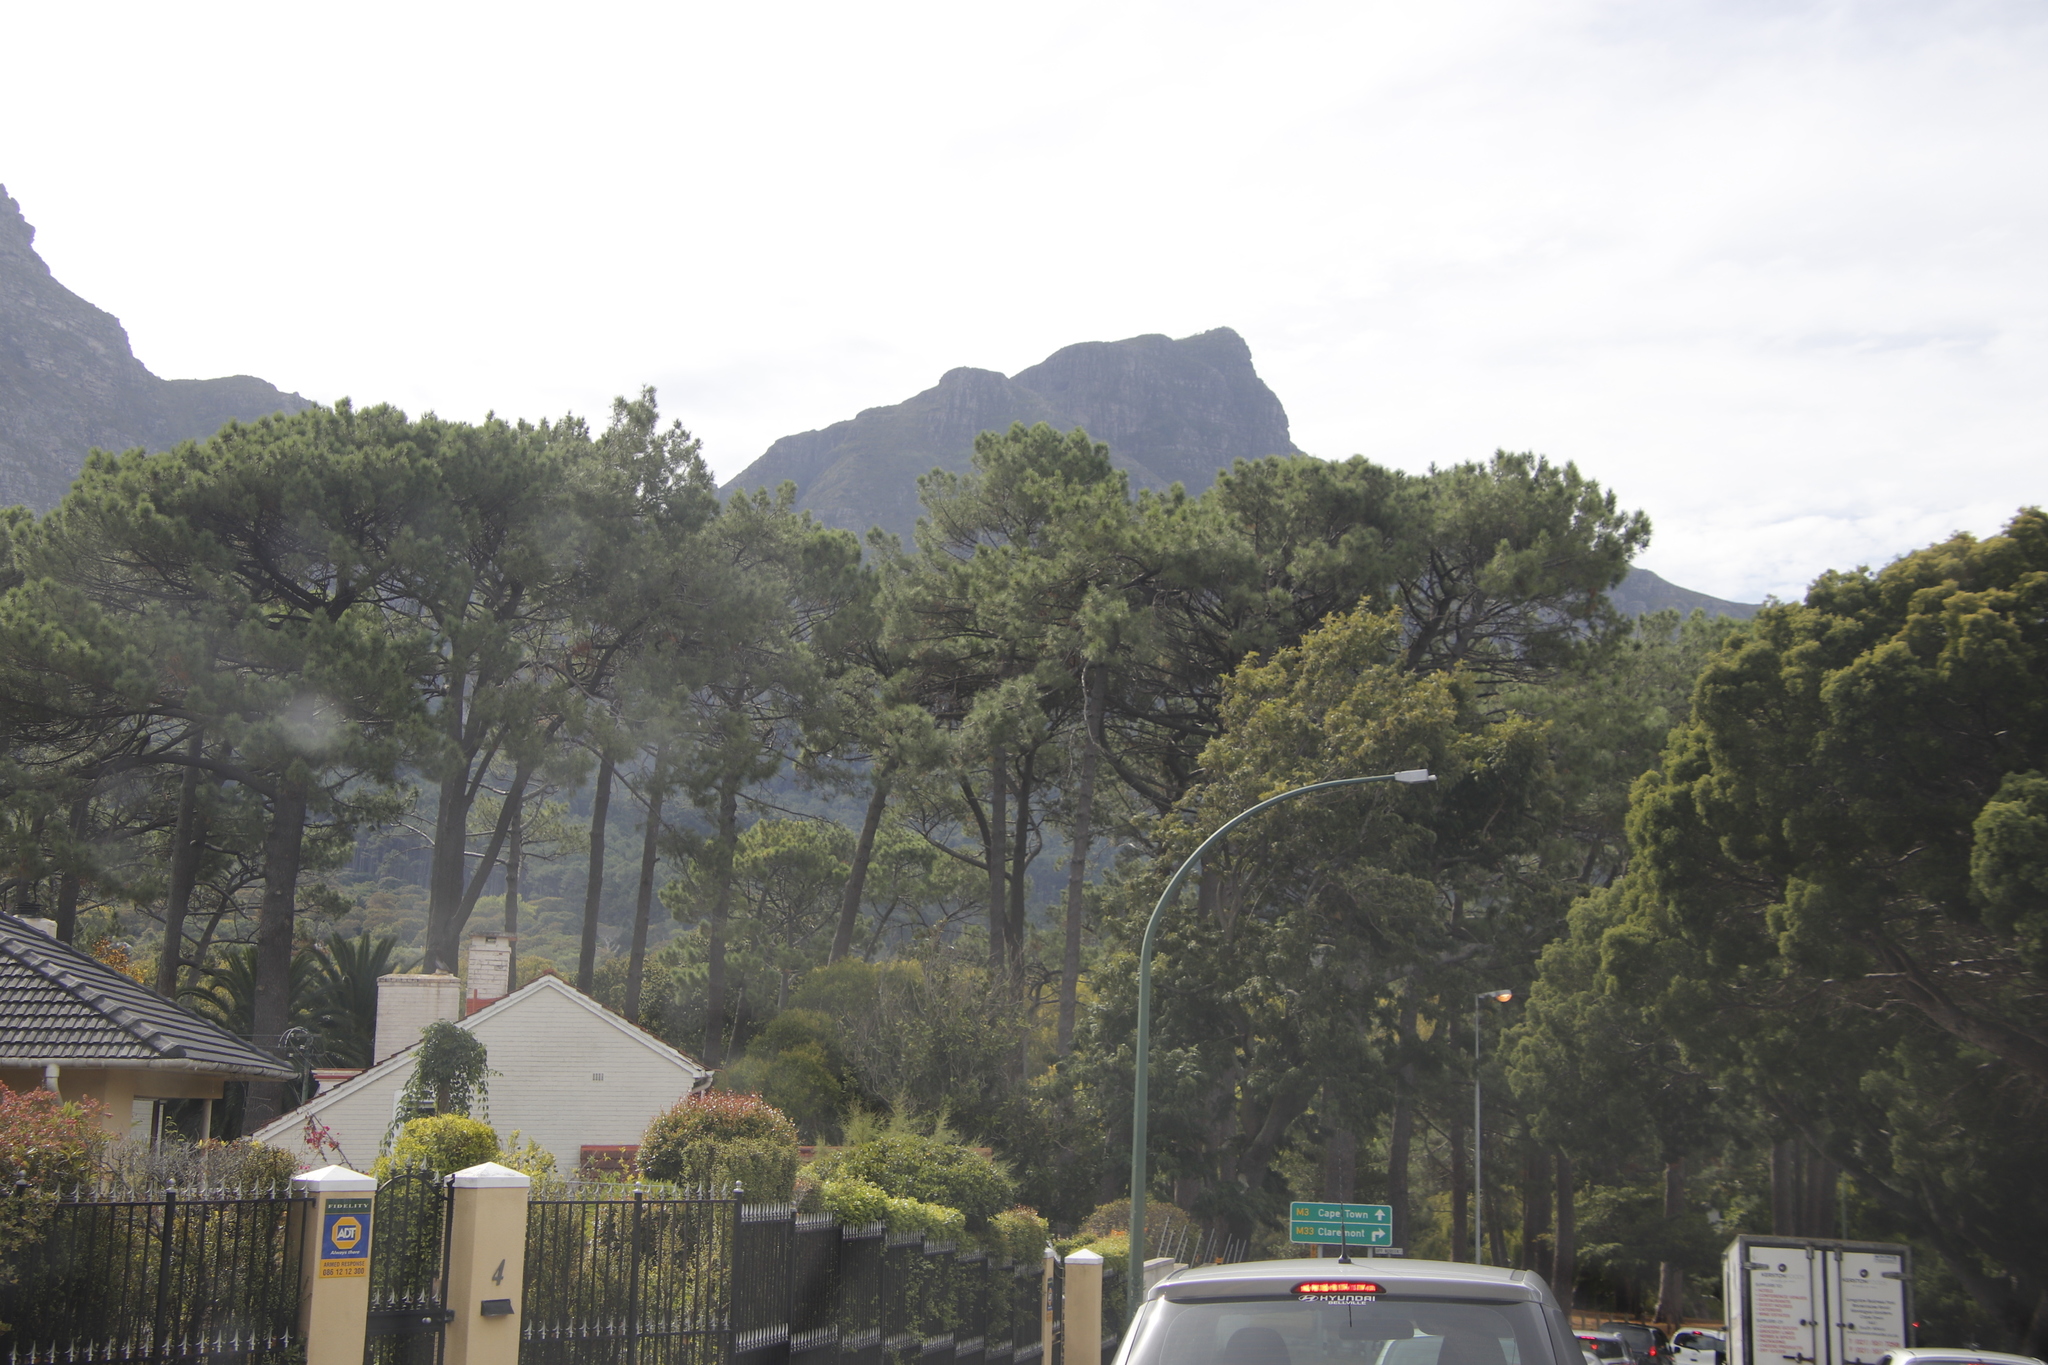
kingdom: Plantae
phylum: Tracheophyta
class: Pinopsida
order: Pinales
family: Pinaceae
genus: Pinus
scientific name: Pinus pinaster
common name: Maritime pine
